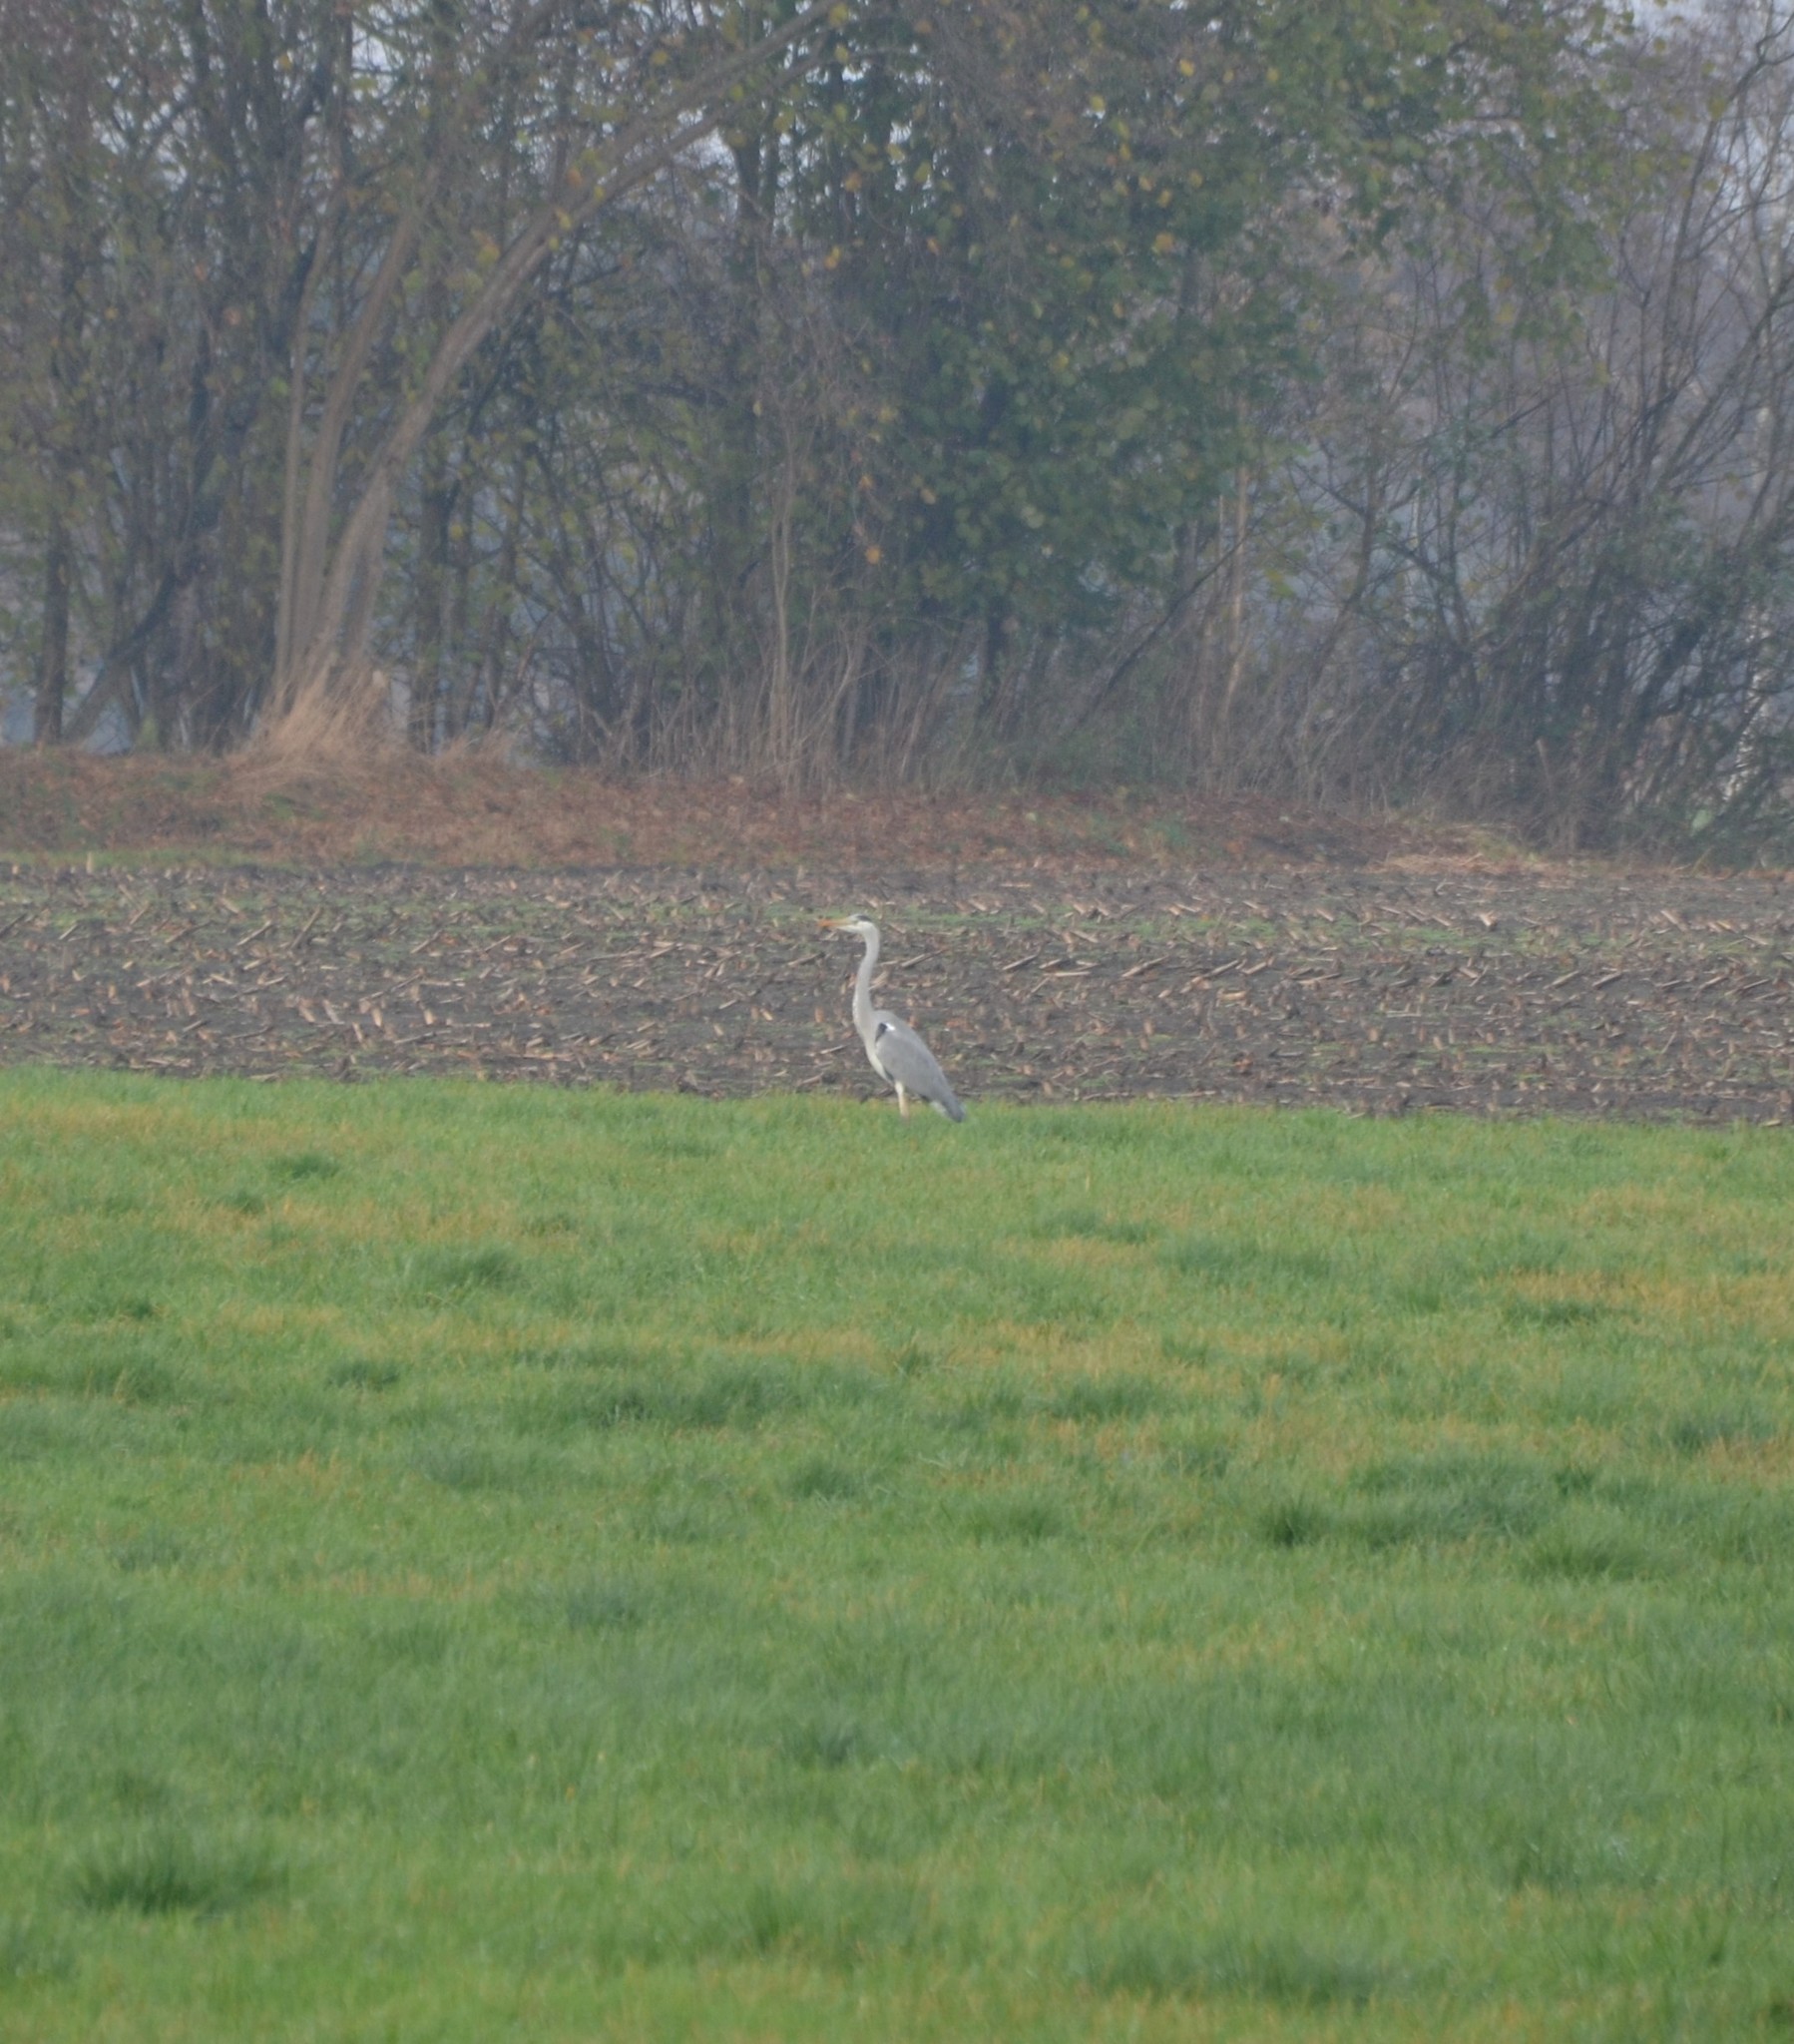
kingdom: Animalia
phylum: Chordata
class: Aves
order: Pelecaniformes
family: Ardeidae
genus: Ardea
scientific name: Ardea cinerea
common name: Grey heron
